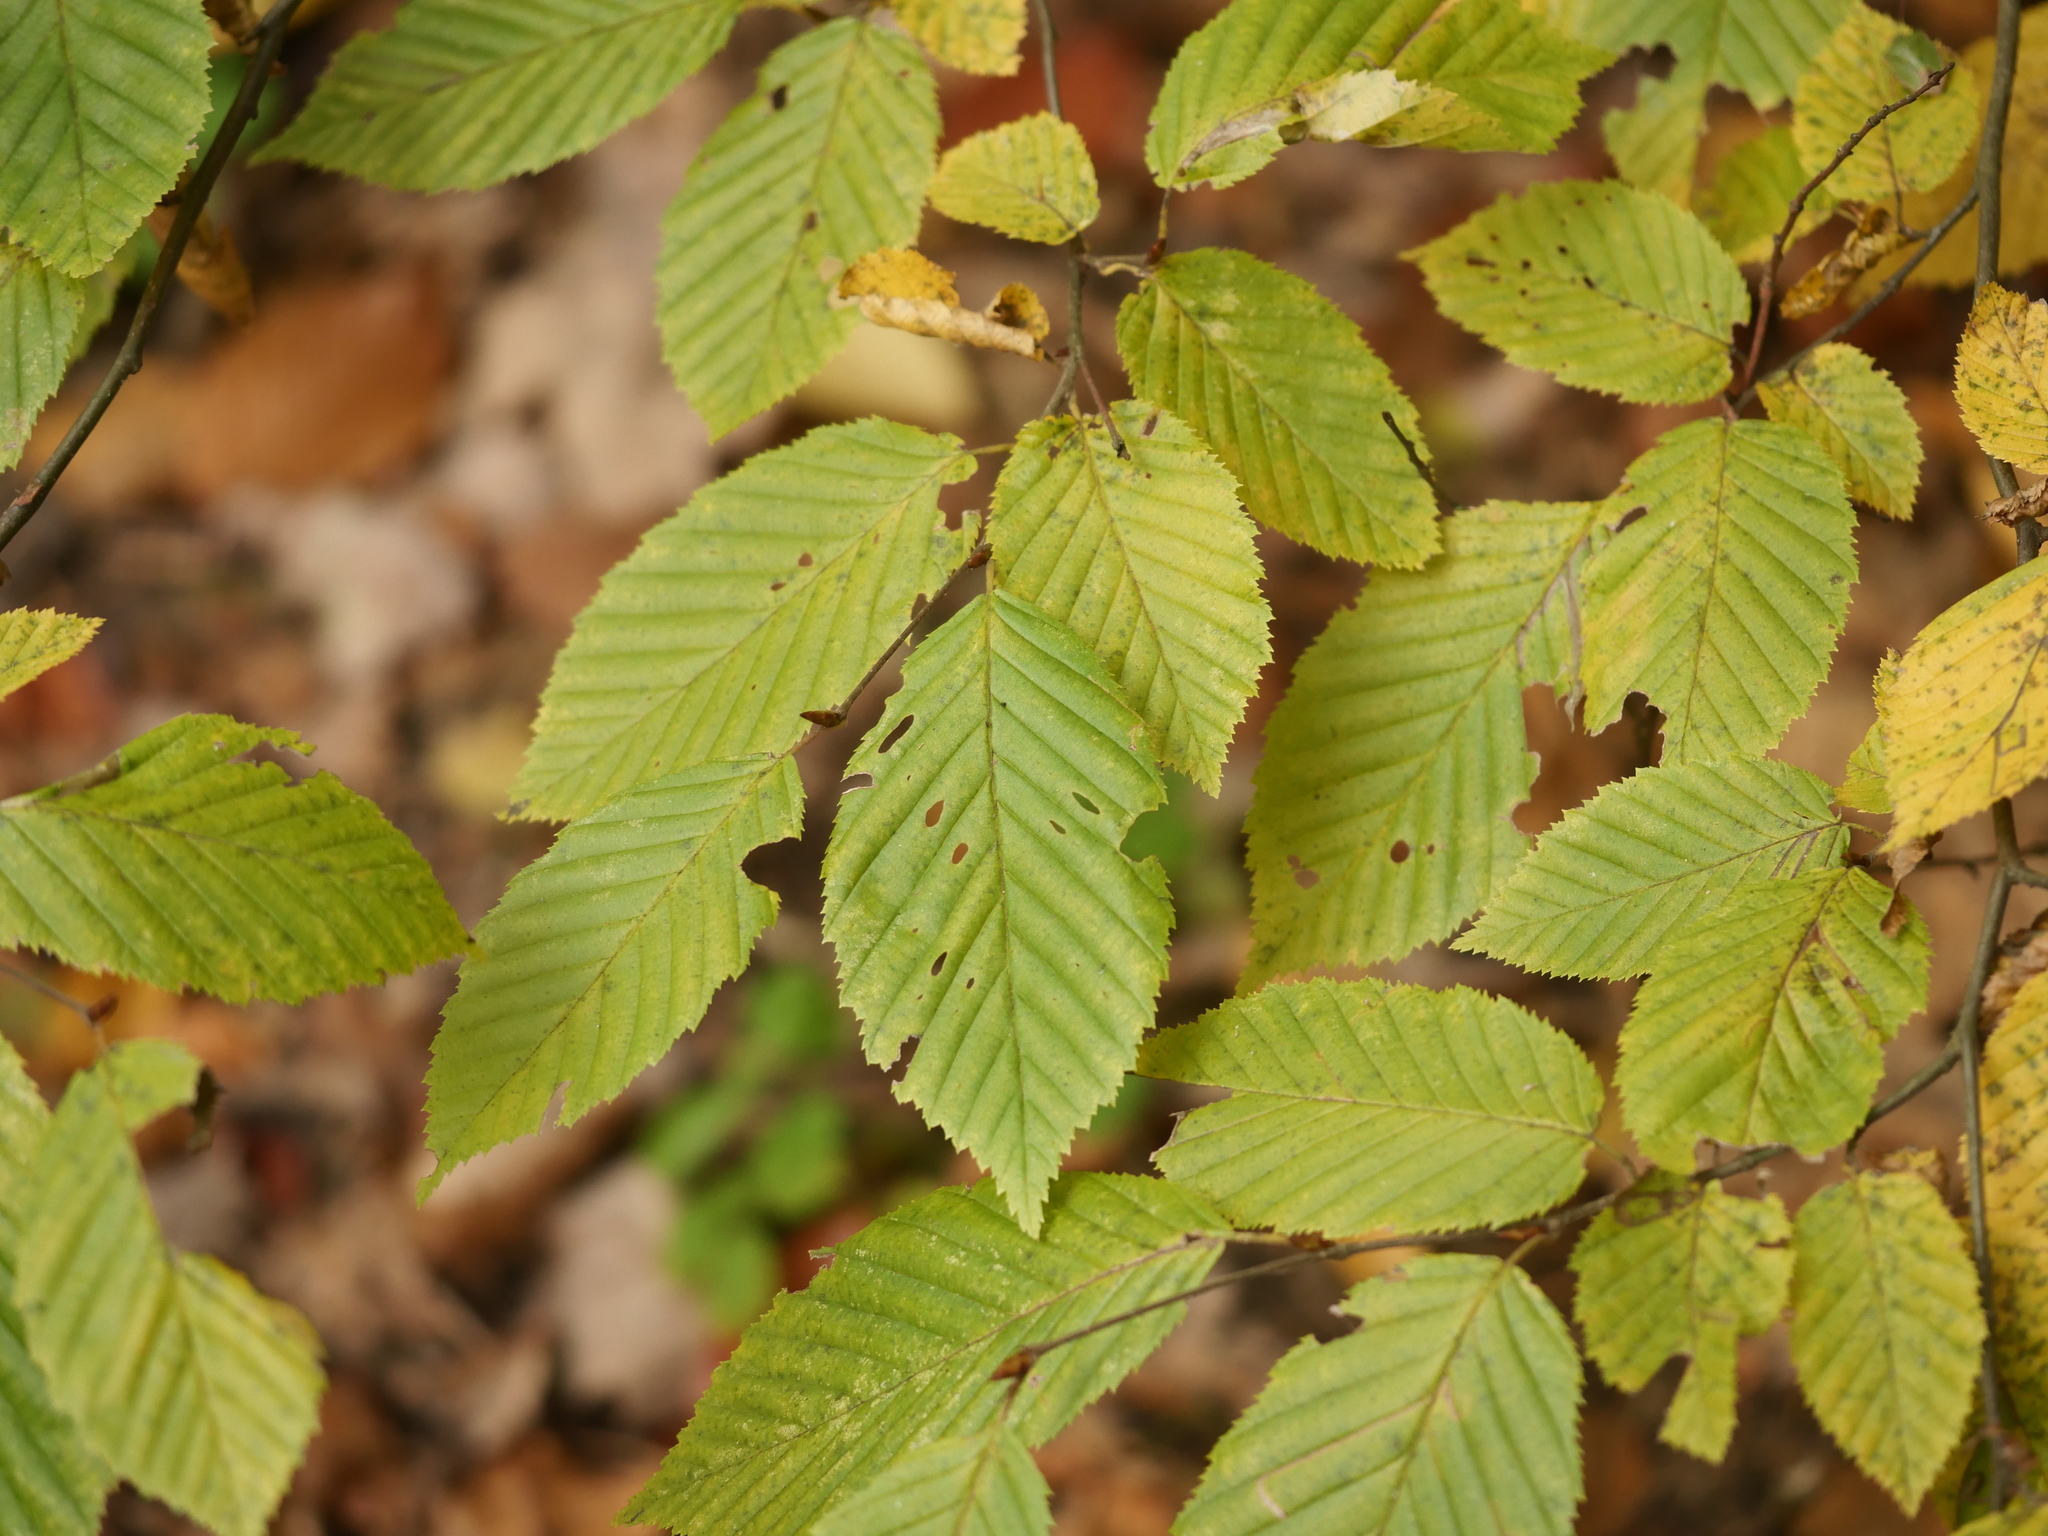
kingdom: Plantae
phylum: Tracheophyta
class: Magnoliopsida
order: Fagales
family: Betulaceae
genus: Carpinus
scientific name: Carpinus betulus
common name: Hornbeam
